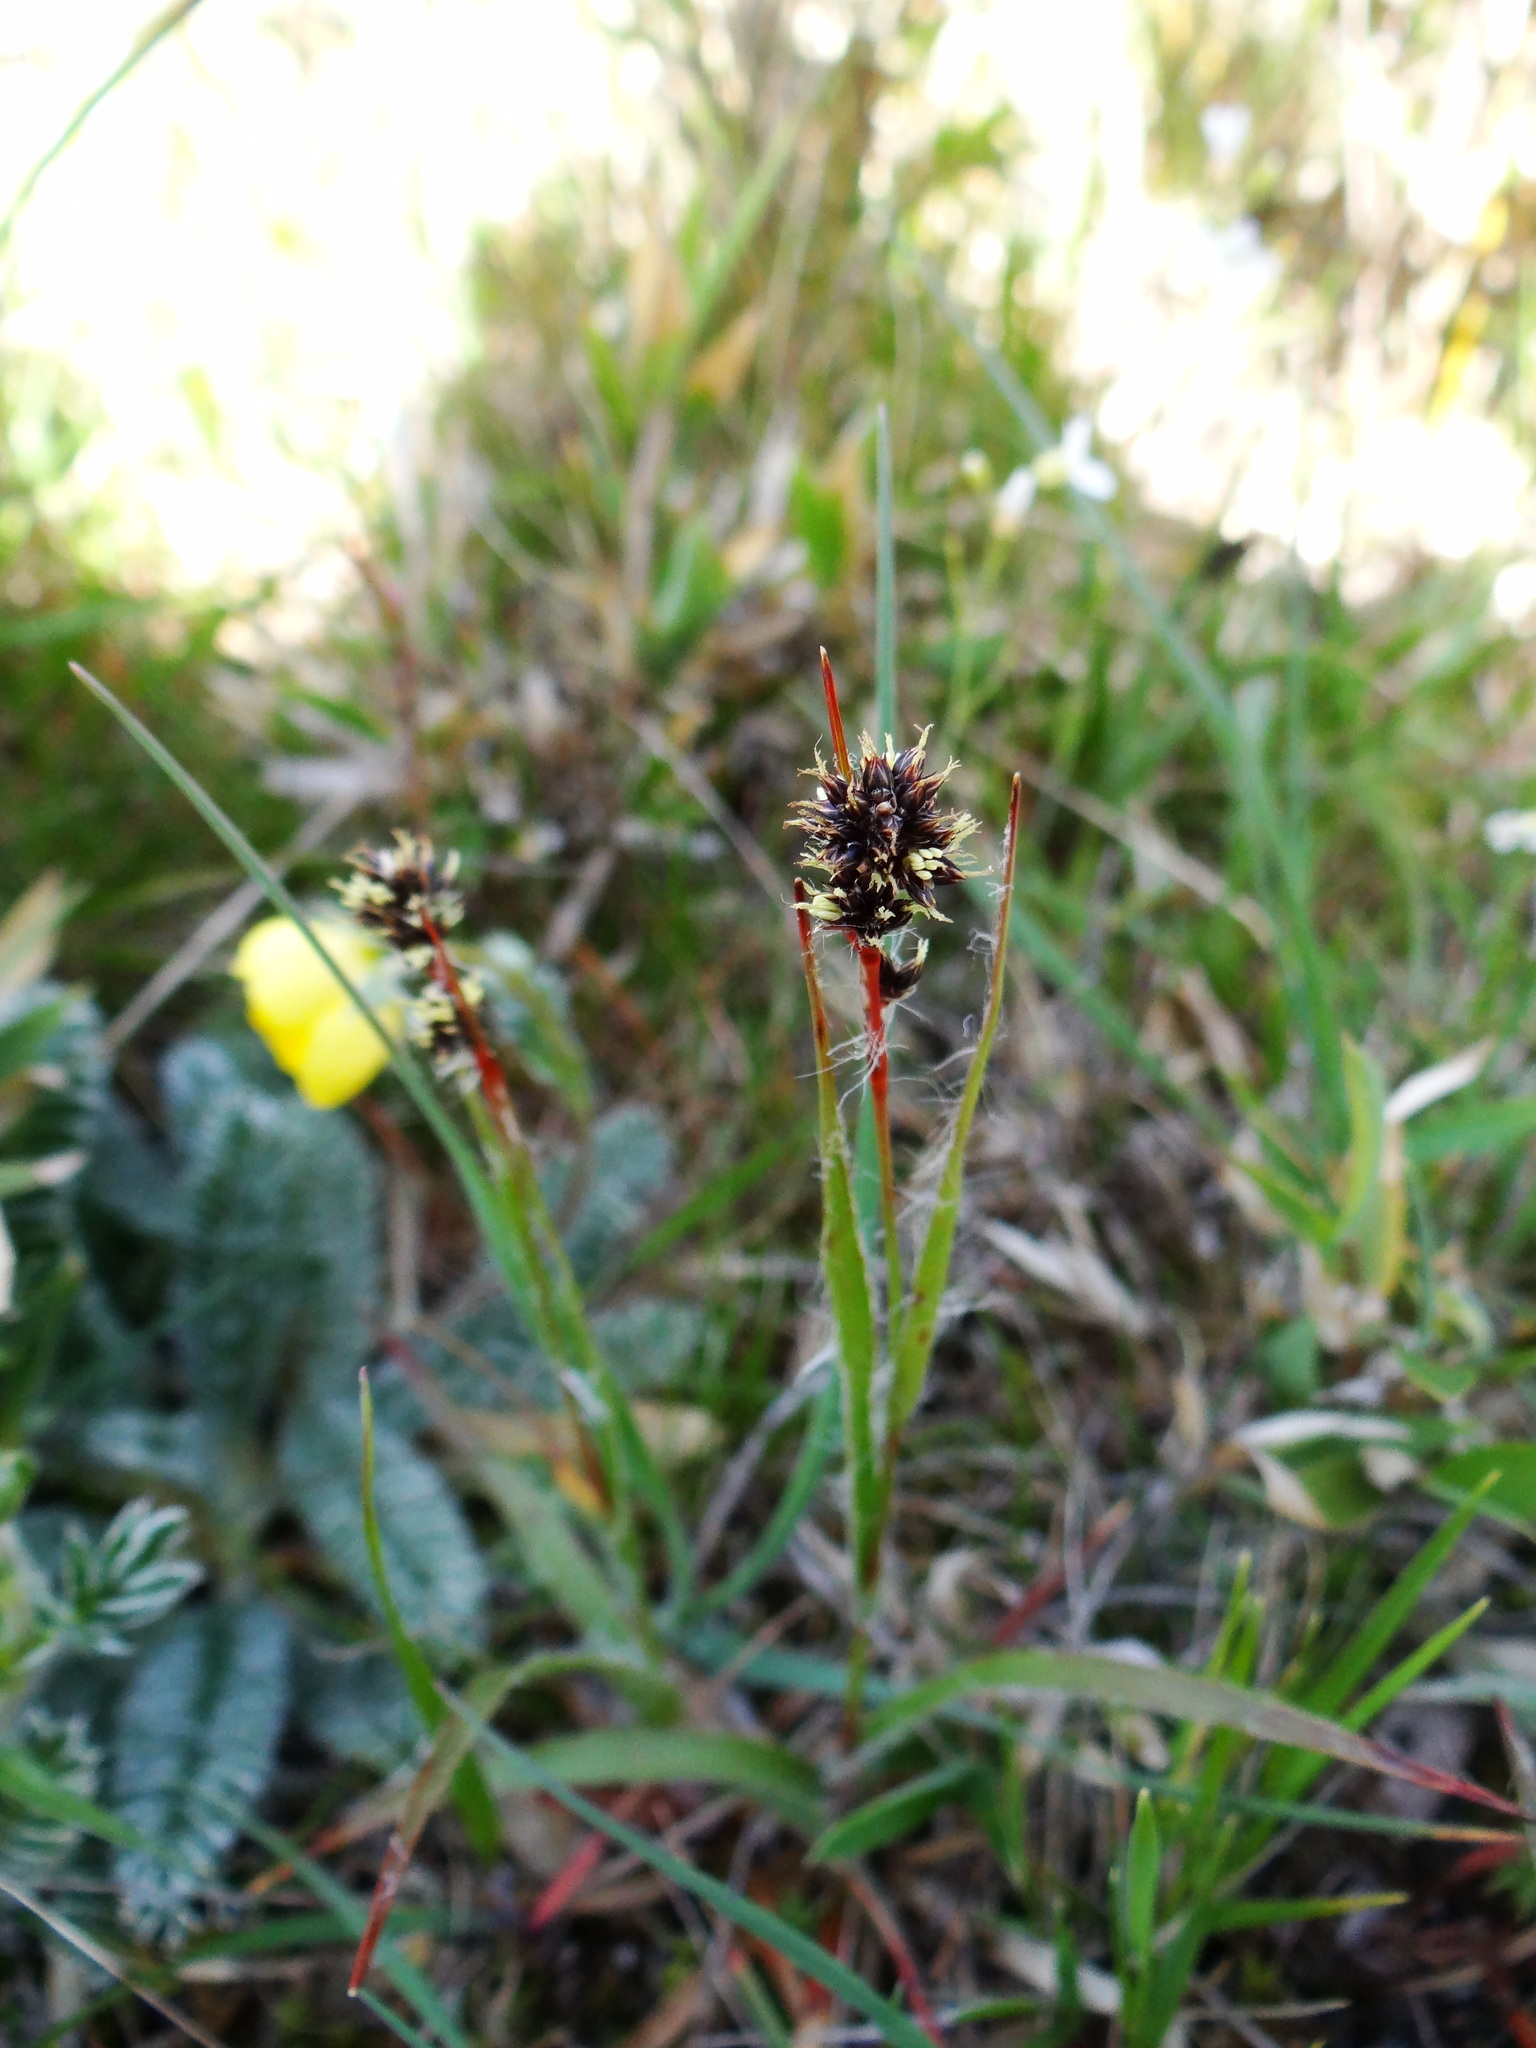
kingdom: Plantae
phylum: Tracheophyta
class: Liliopsida
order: Poales
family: Juncaceae
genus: Luzula
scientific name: Luzula taiwaniana
